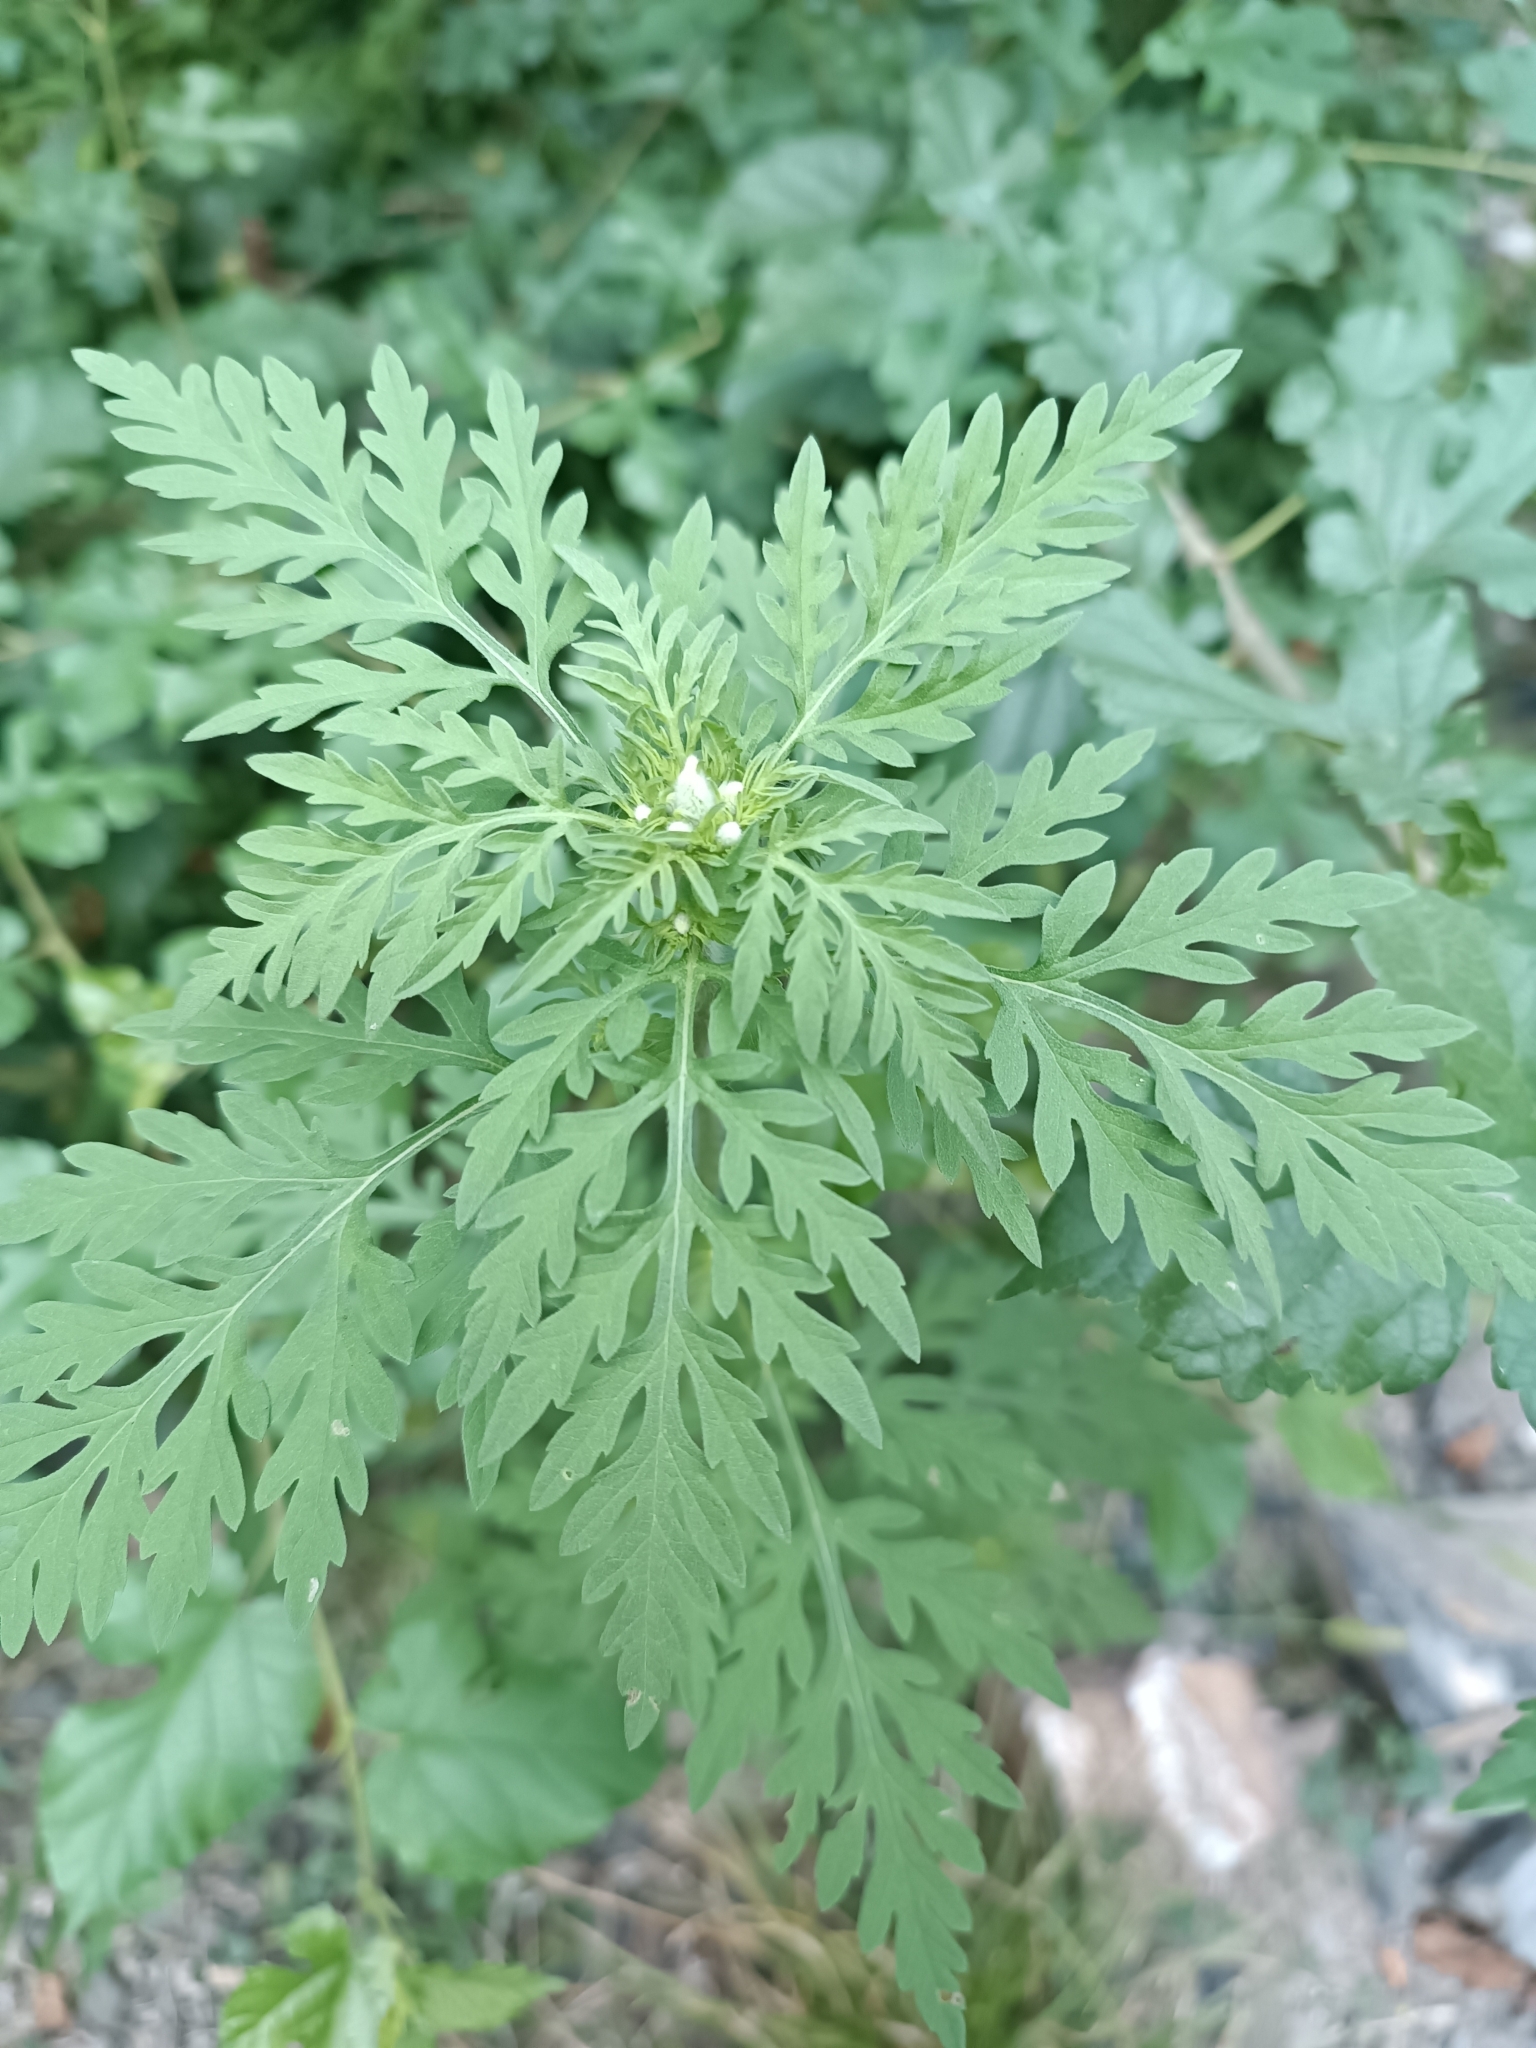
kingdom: Plantae
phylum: Tracheophyta
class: Magnoliopsida
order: Asterales
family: Asteraceae
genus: Ambrosia
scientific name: Ambrosia artemisiifolia
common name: Annual ragweed
